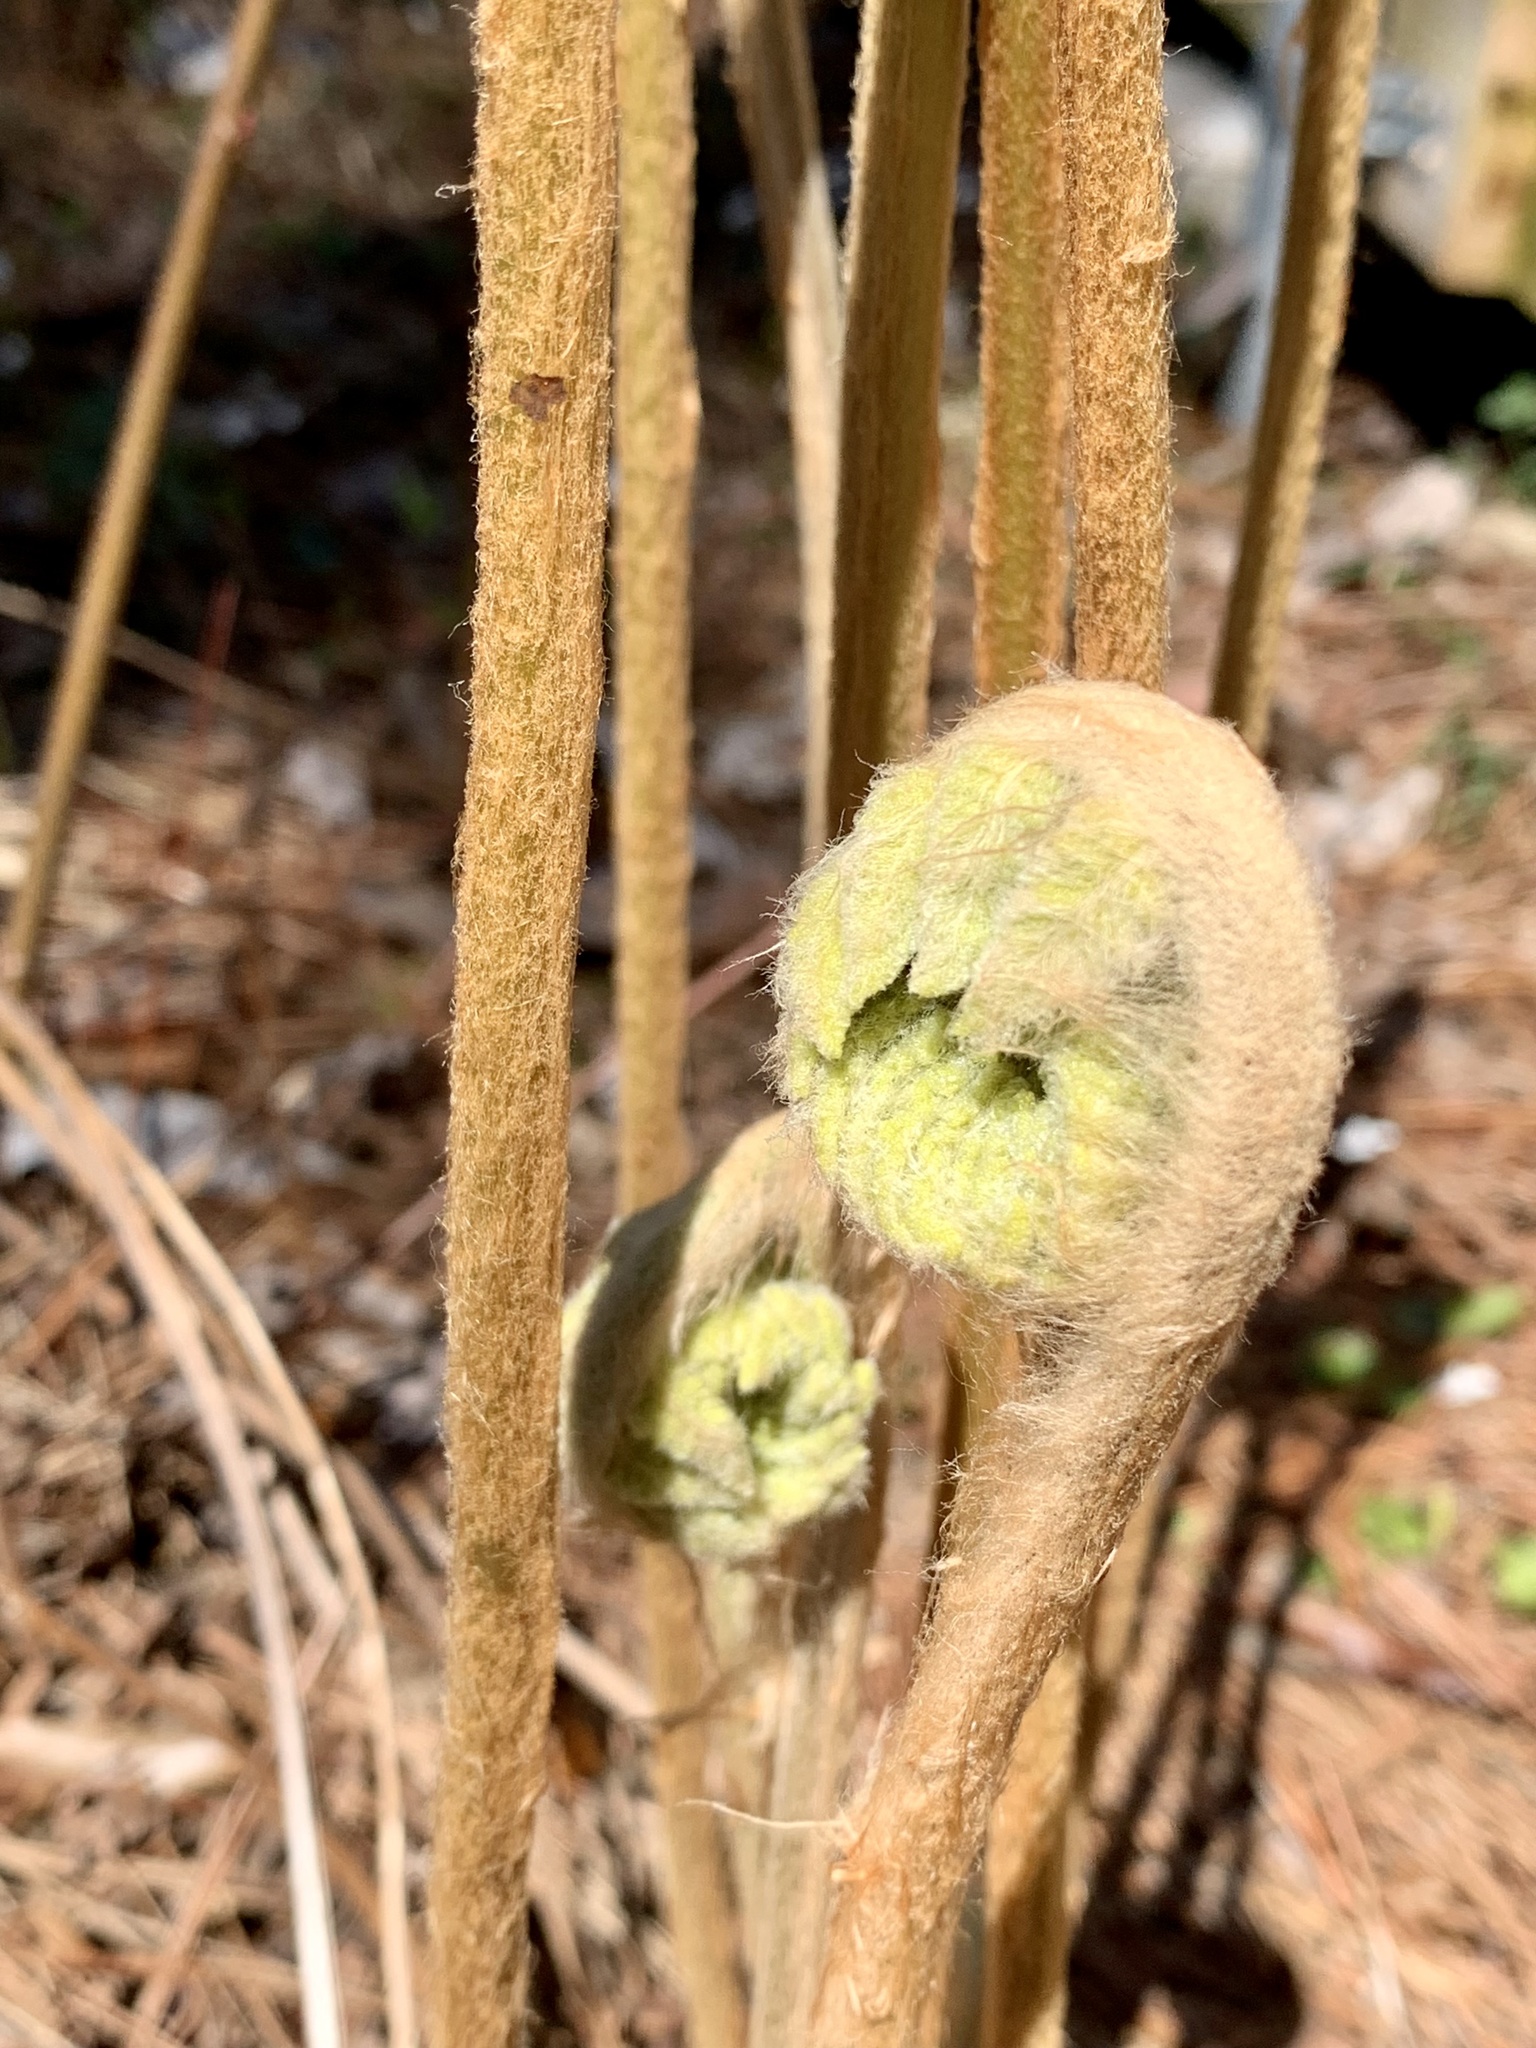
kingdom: Plantae
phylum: Tracheophyta
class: Polypodiopsida
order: Osmundales
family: Osmundaceae
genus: Osmundastrum
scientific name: Osmundastrum cinnamomeum
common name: Cinnamon fern
